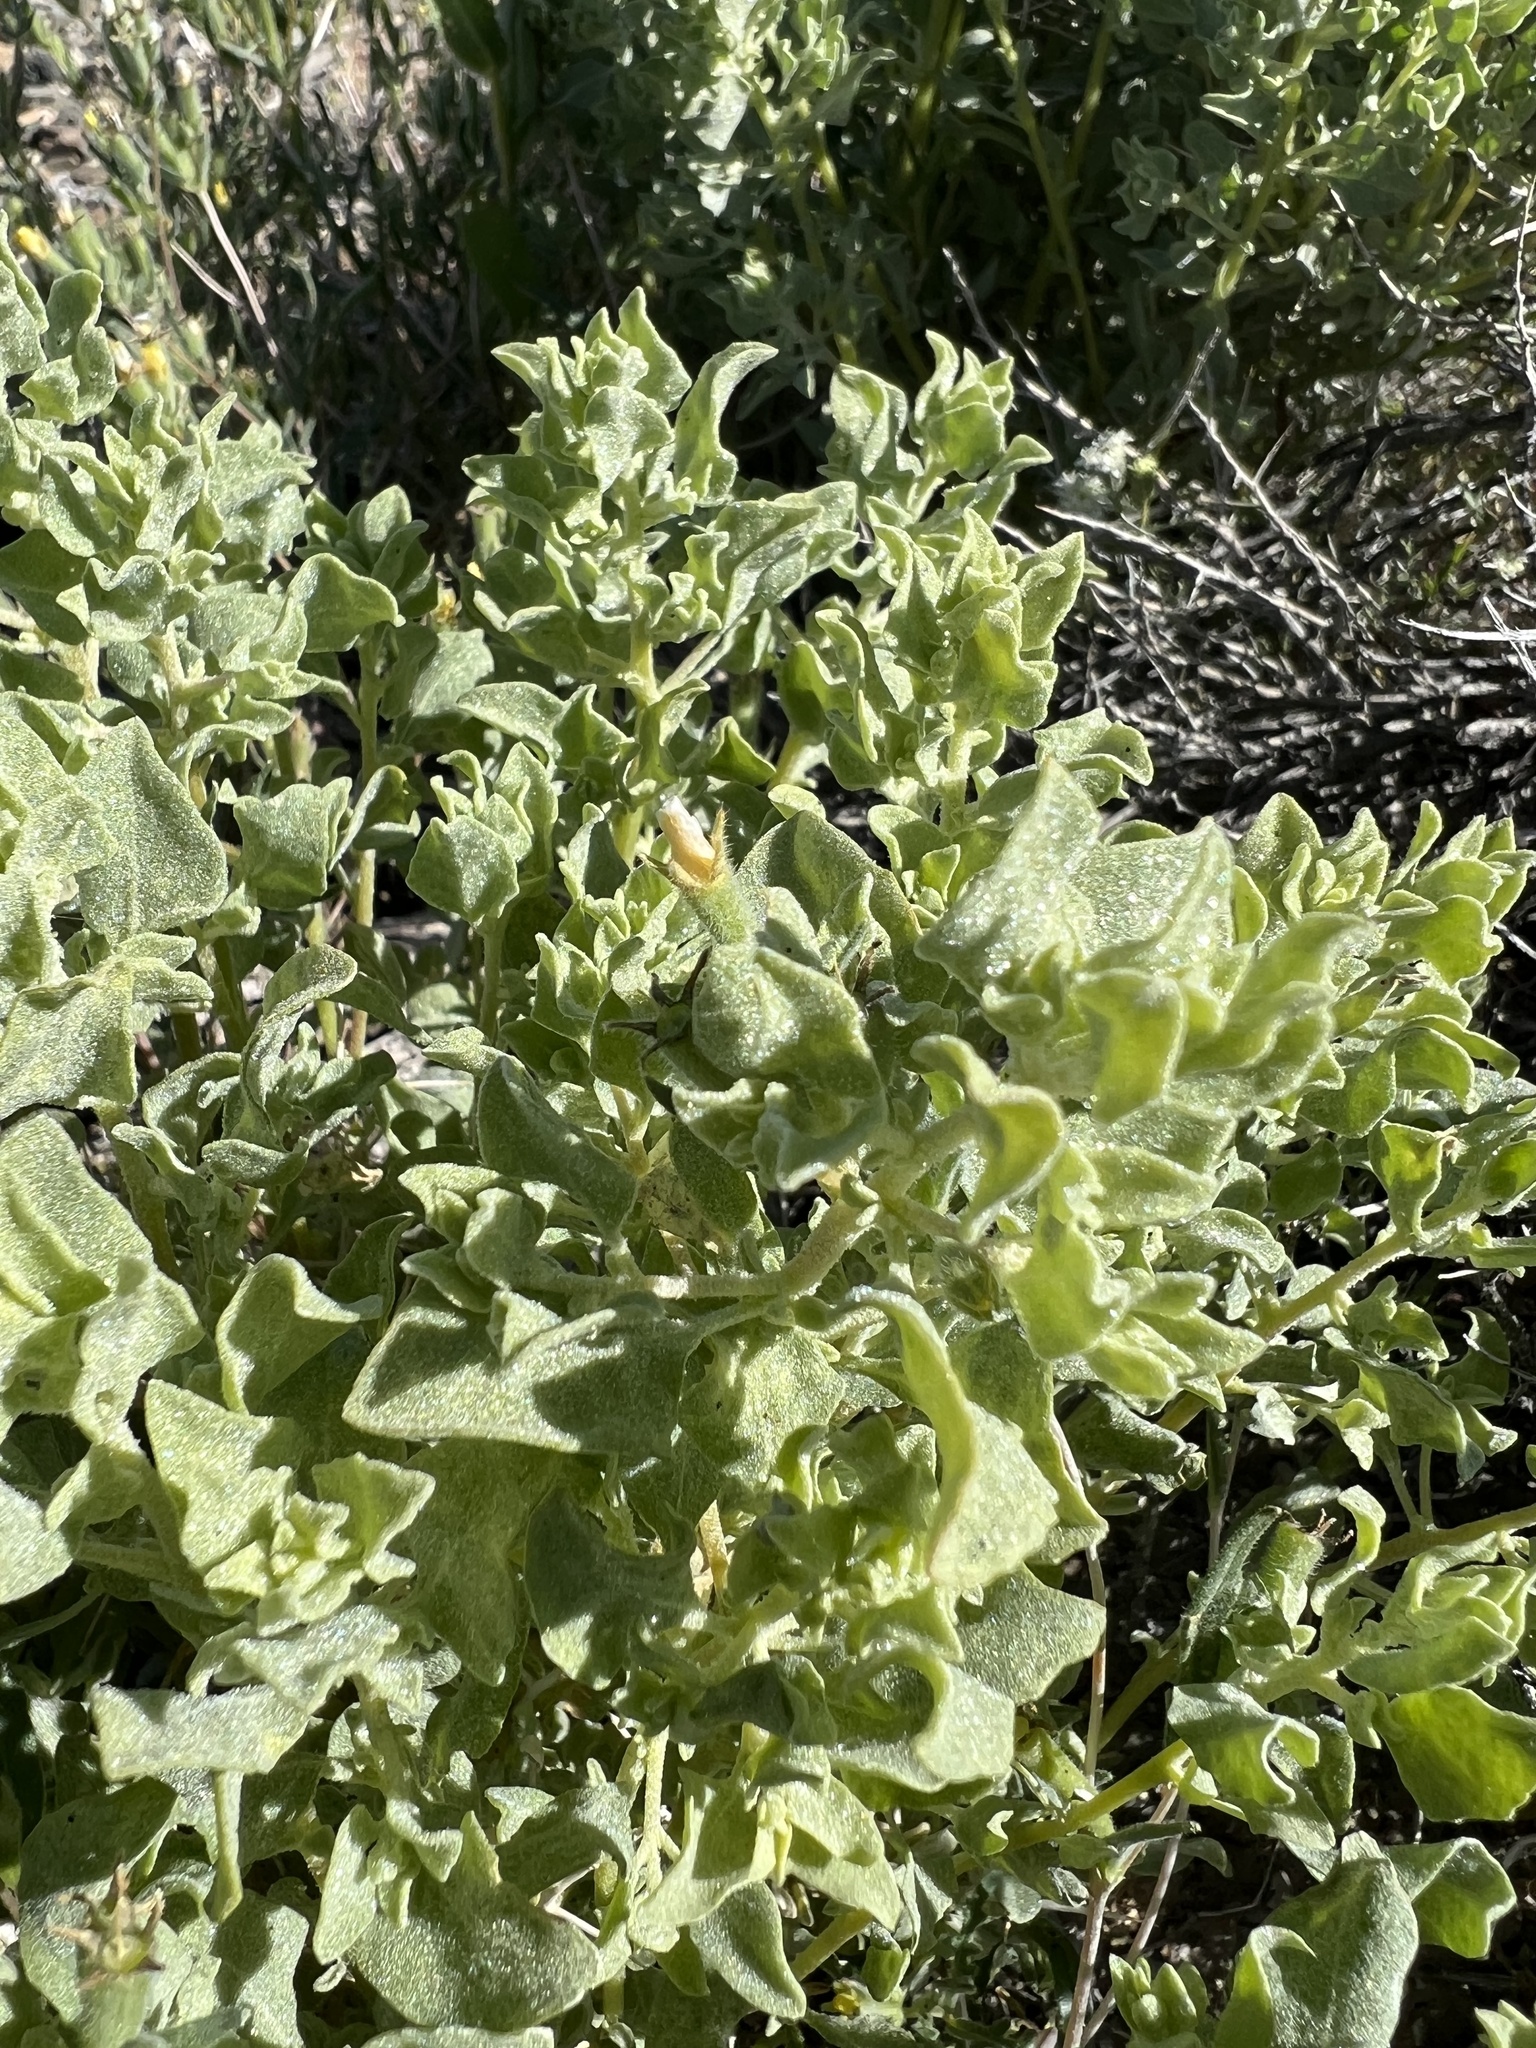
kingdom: Plantae
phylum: Tracheophyta
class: Magnoliopsida
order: Caryophyllales
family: Amaranthaceae
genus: Atriplex
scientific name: Atriplex confertifolia
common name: Shadscale
